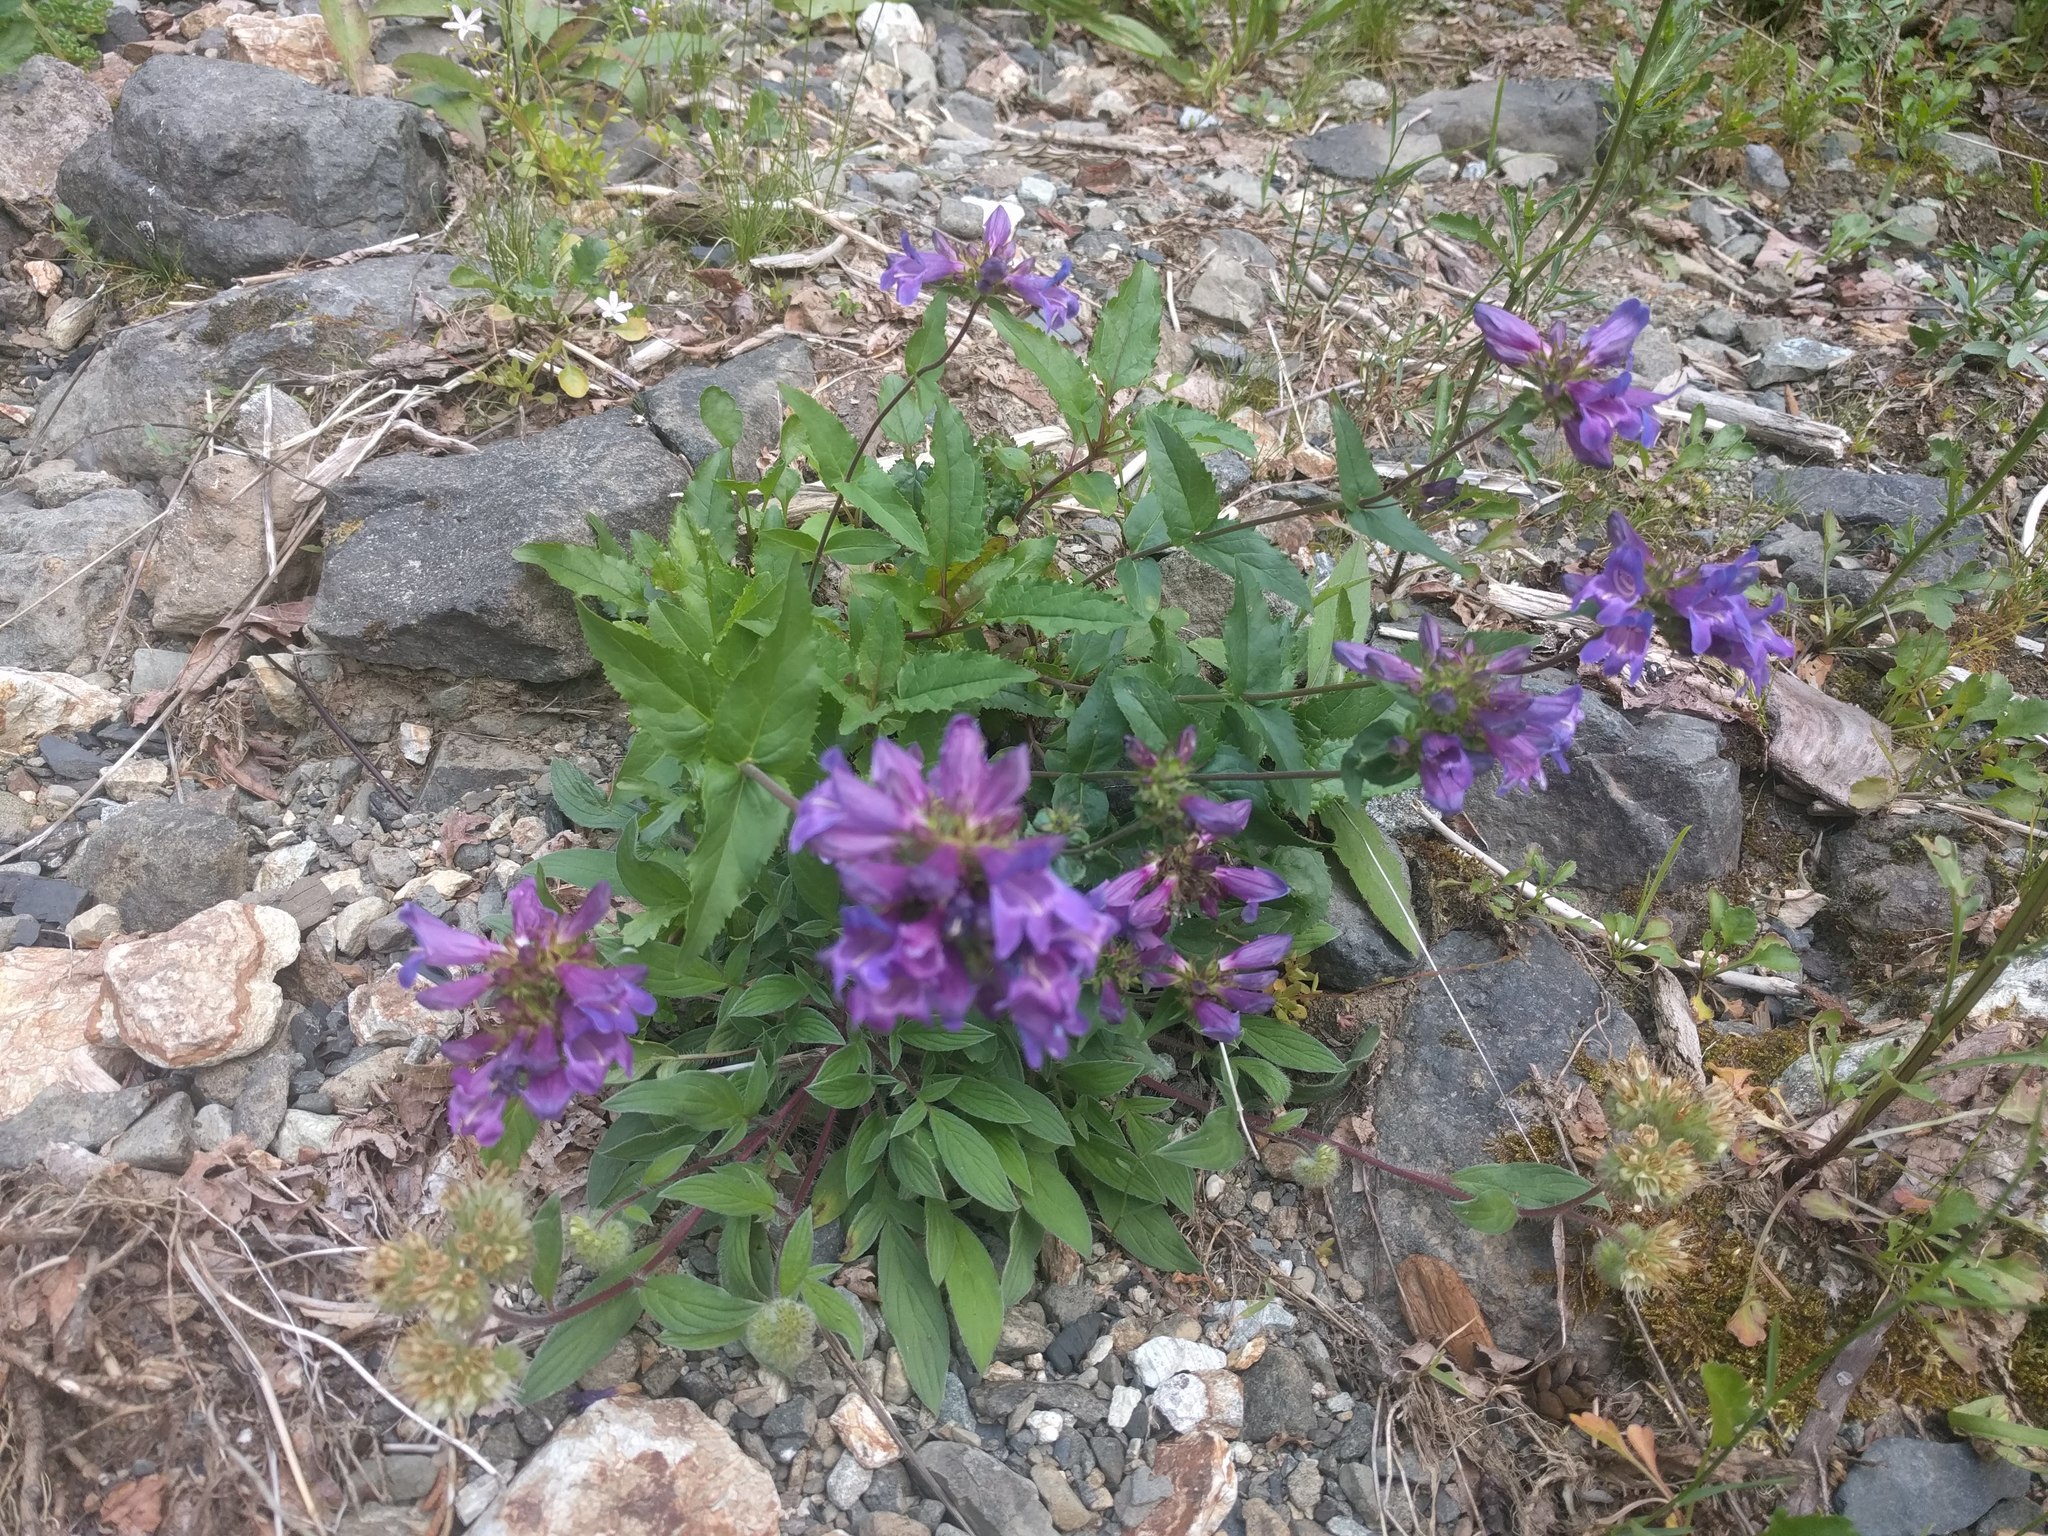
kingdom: Plantae
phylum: Tracheophyta
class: Magnoliopsida
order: Lamiales
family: Plantaginaceae
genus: Penstemon
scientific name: Penstemon serrulatus
